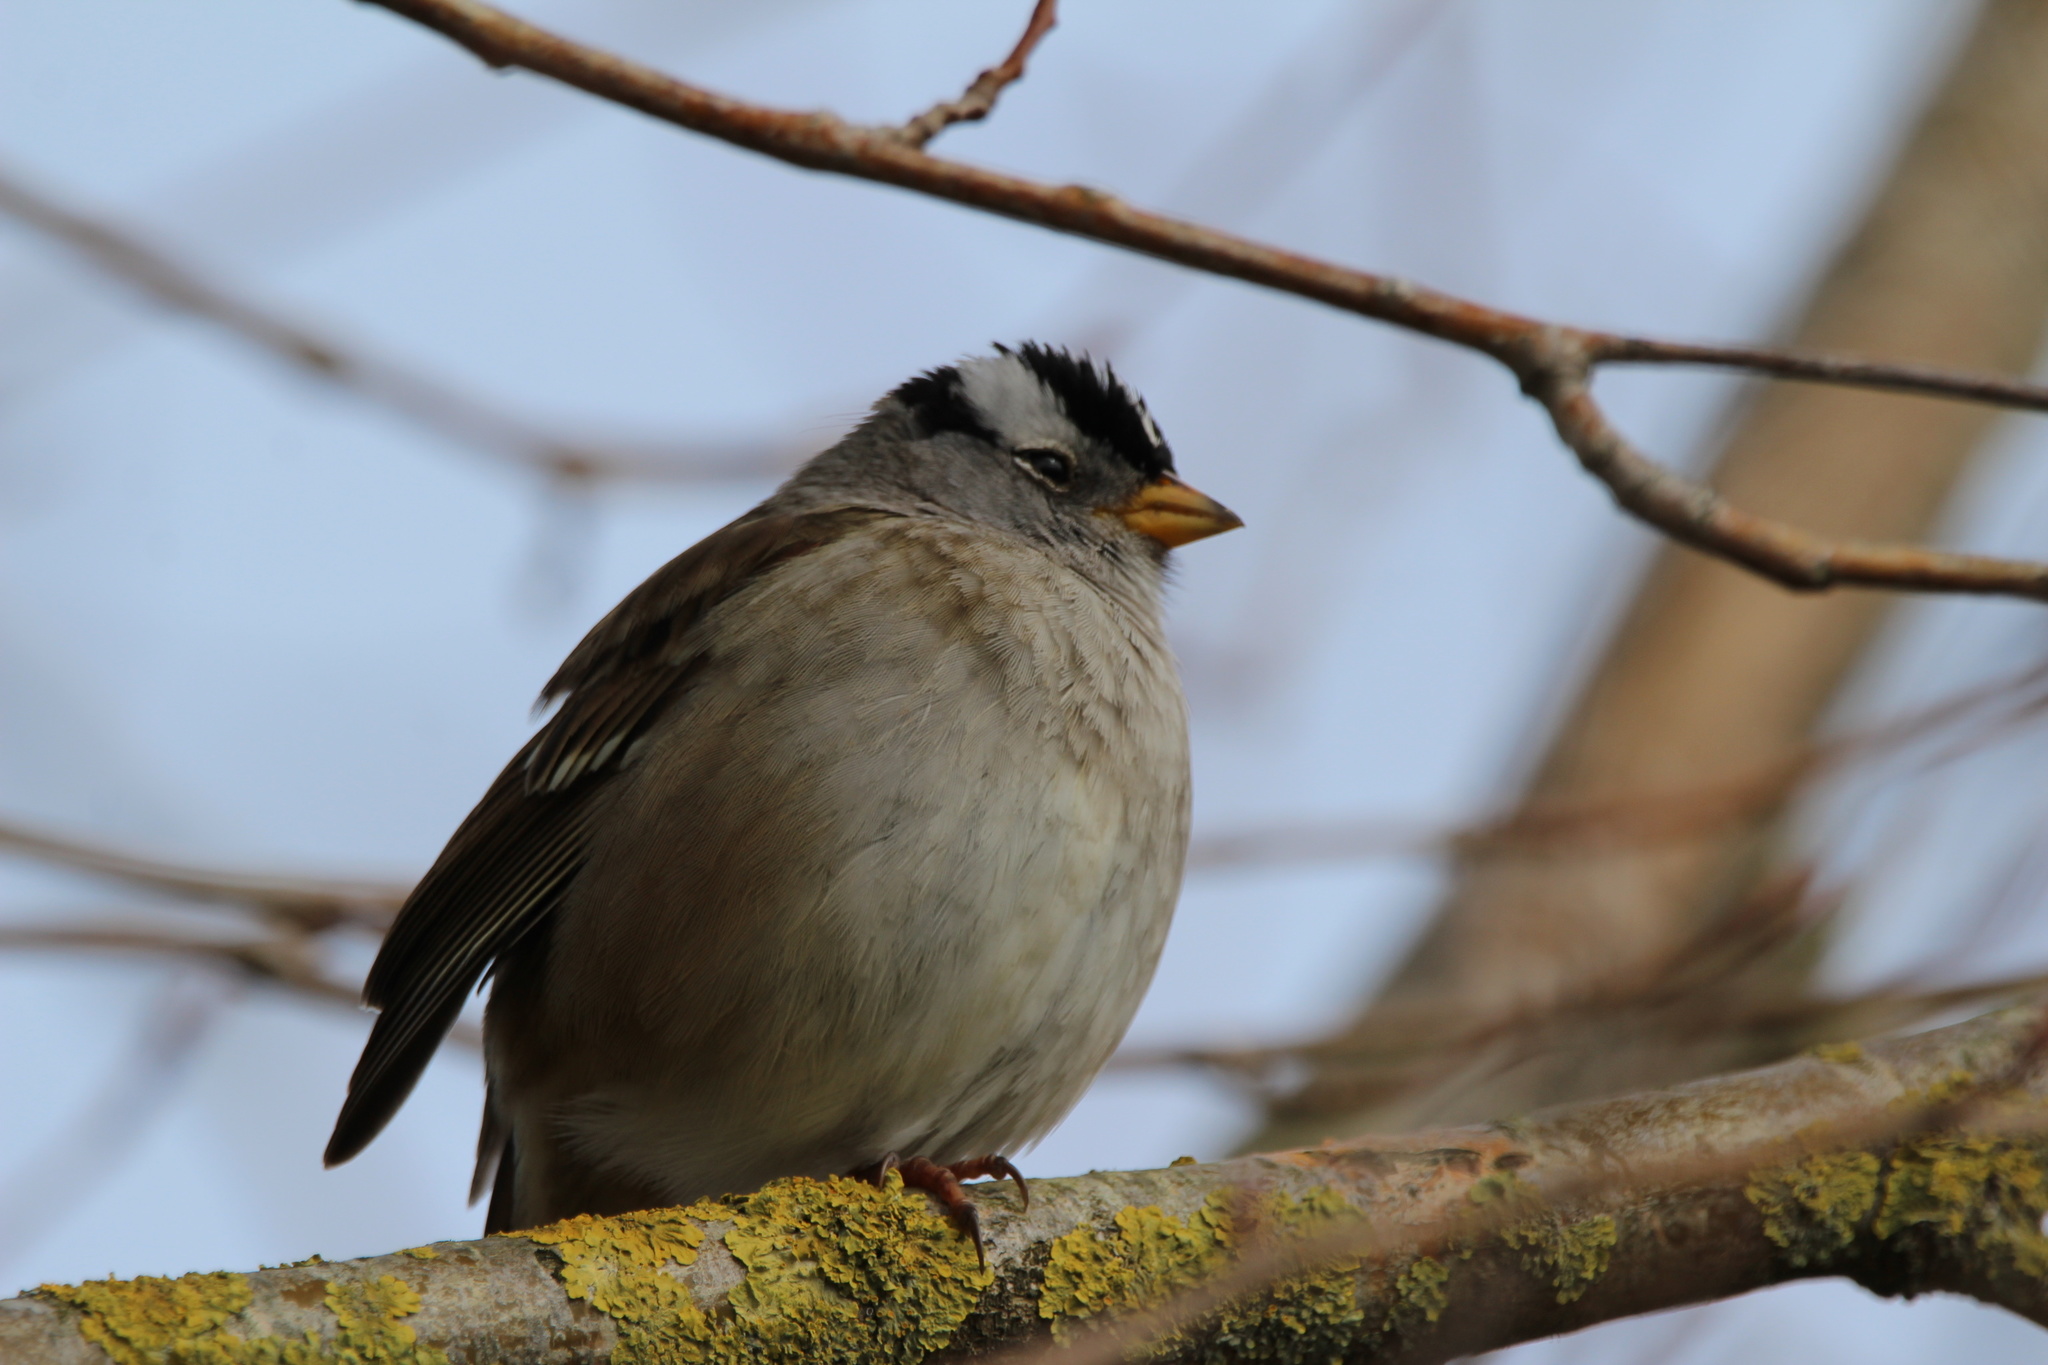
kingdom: Animalia
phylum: Chordata
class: Aves
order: Passeriformes
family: Passerellidae
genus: Zonotrichia
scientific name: Zonotrichia leucophrys
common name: White-crowned sparrow
